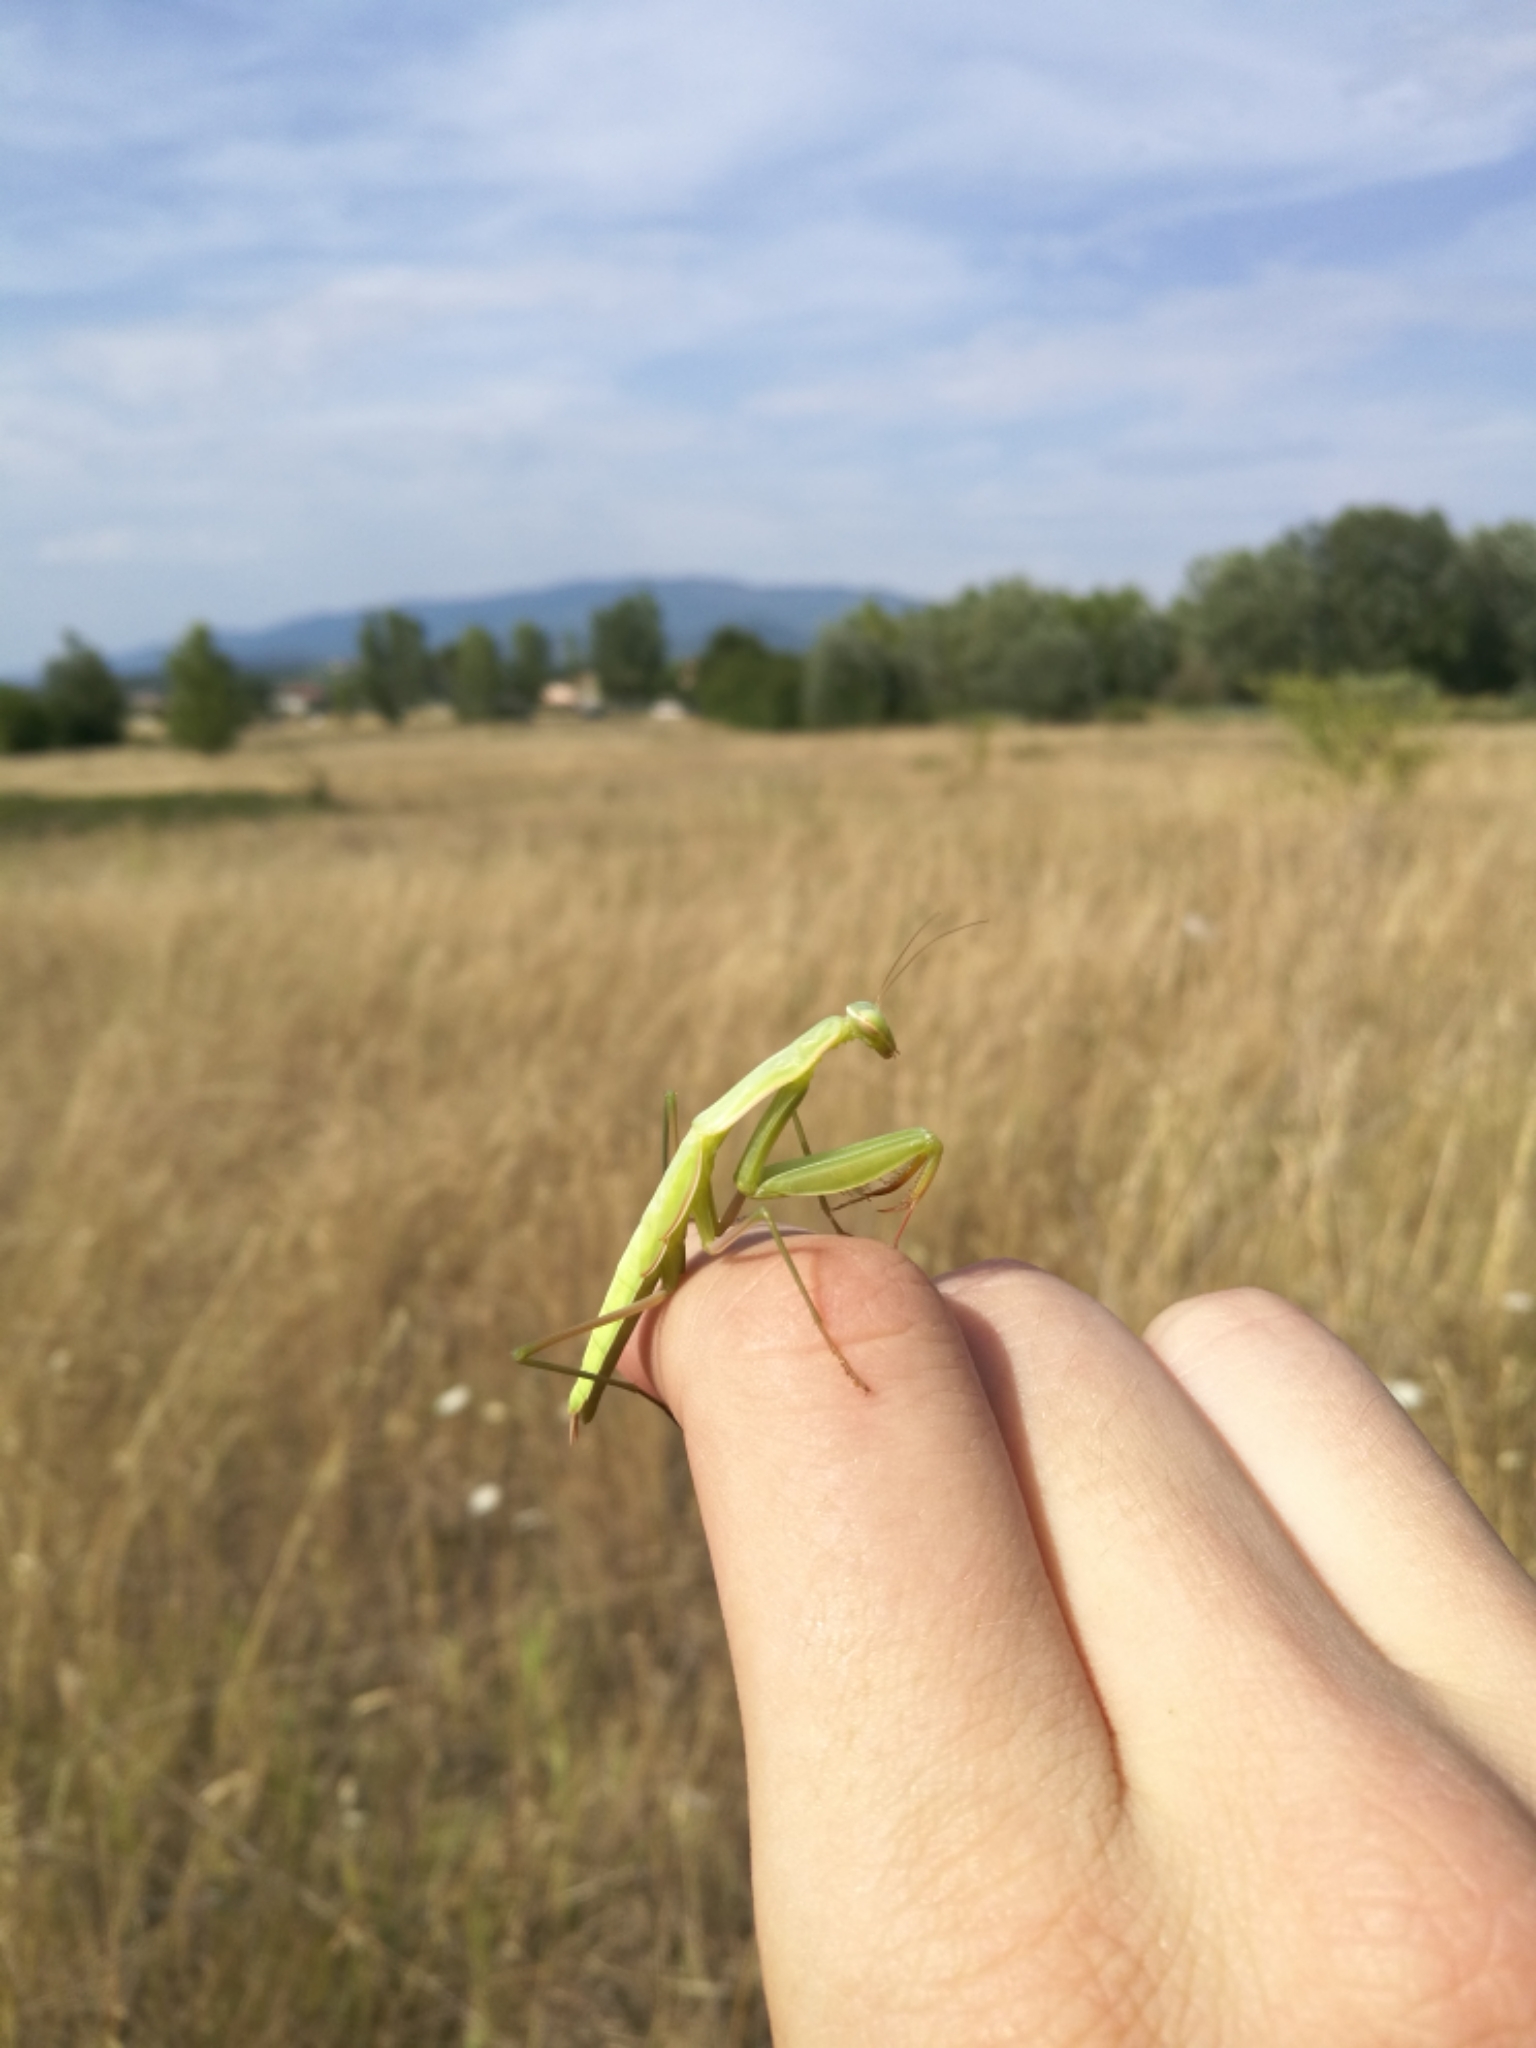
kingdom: Animalia
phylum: Arthropoda
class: Insecta
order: Mantodea
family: Mantidae
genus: Mantis
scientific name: Mantis religiosa
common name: Praying mantis
